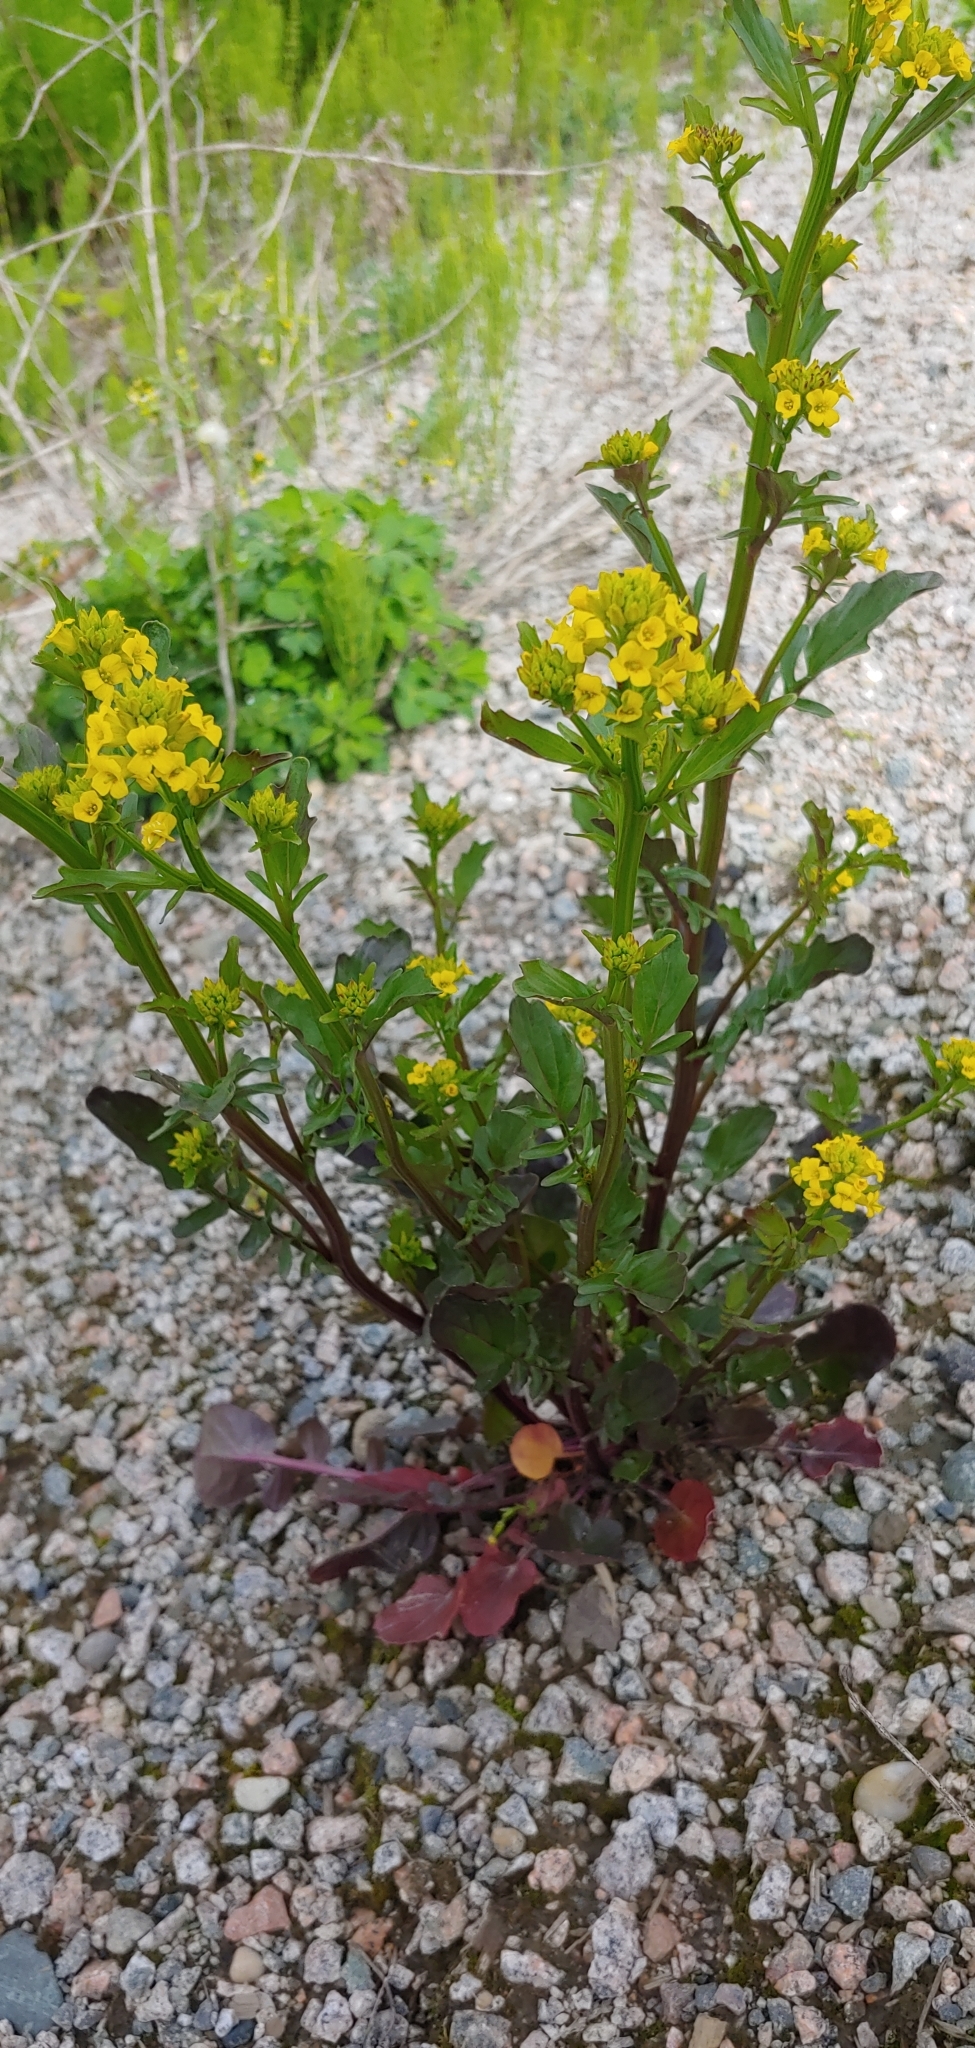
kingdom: Plantae
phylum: Tracheophyta
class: Magnoliopsida
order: Brassicales
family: Brassicaceae
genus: Barbarea
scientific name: Barbarea orthoceras
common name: American wintercress
